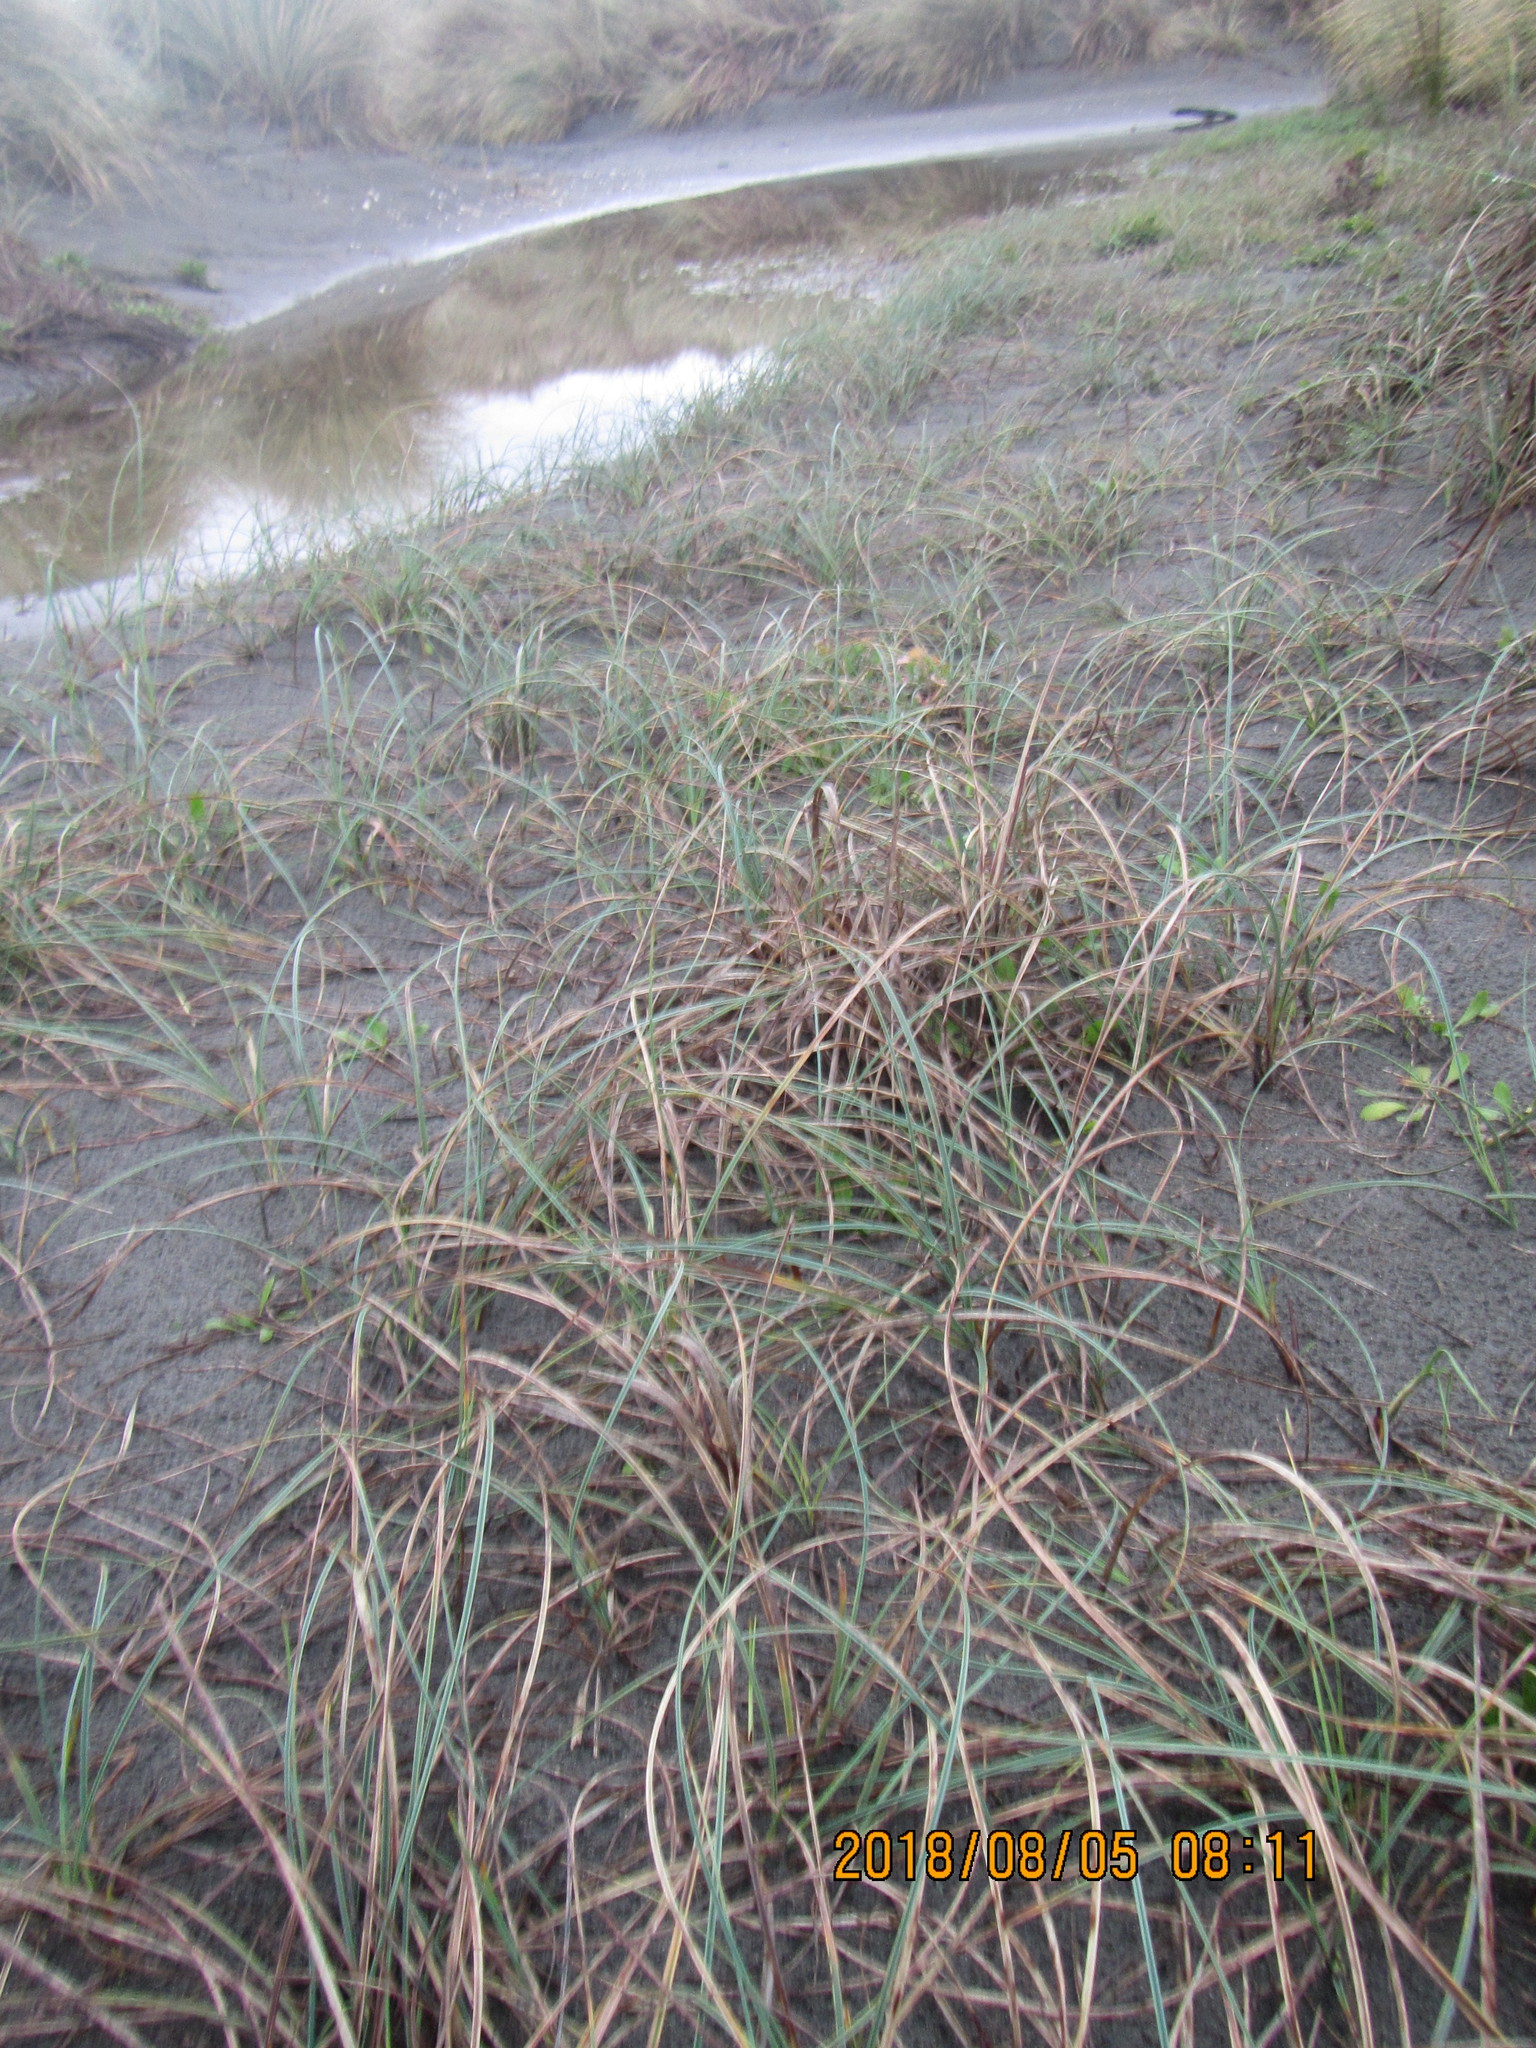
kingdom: Plantae
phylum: Tracheophyta
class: Liliopsida
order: Poales
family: Cyperaceae
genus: Carex
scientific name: Carex pumila
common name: Dwarf sedge
